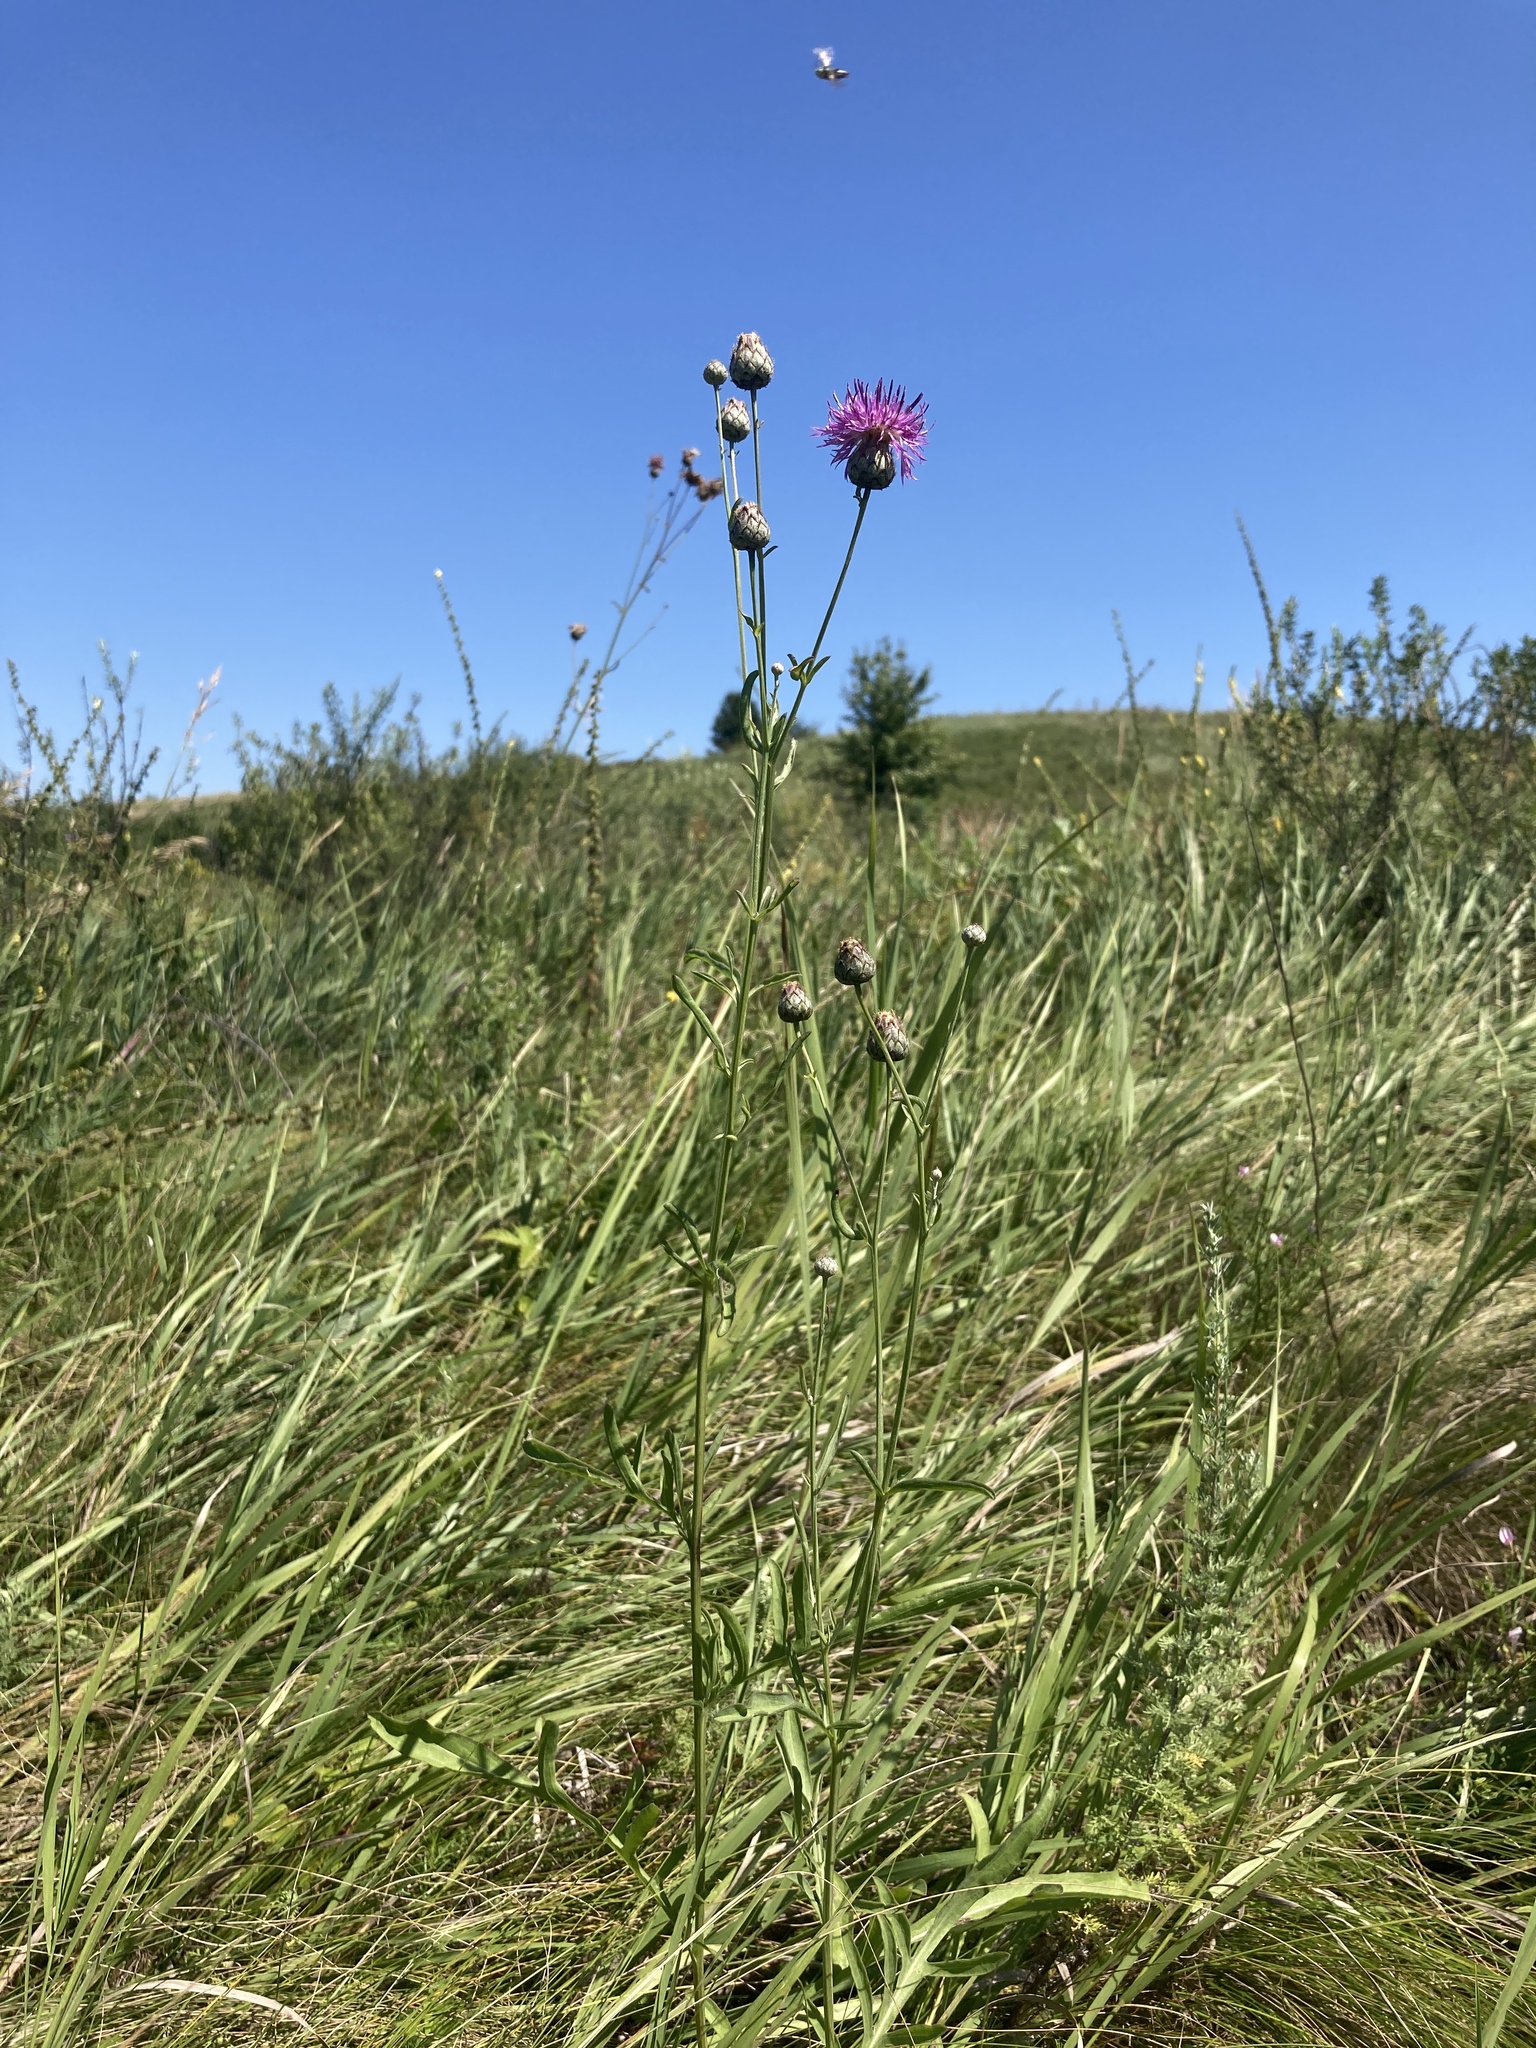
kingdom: Plantae
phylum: Tracheophyta
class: Magnoliopsida
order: Asterales
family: Asteraceae
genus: Centaurea
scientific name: Centaurea scabiosa
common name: Greater knapweed
